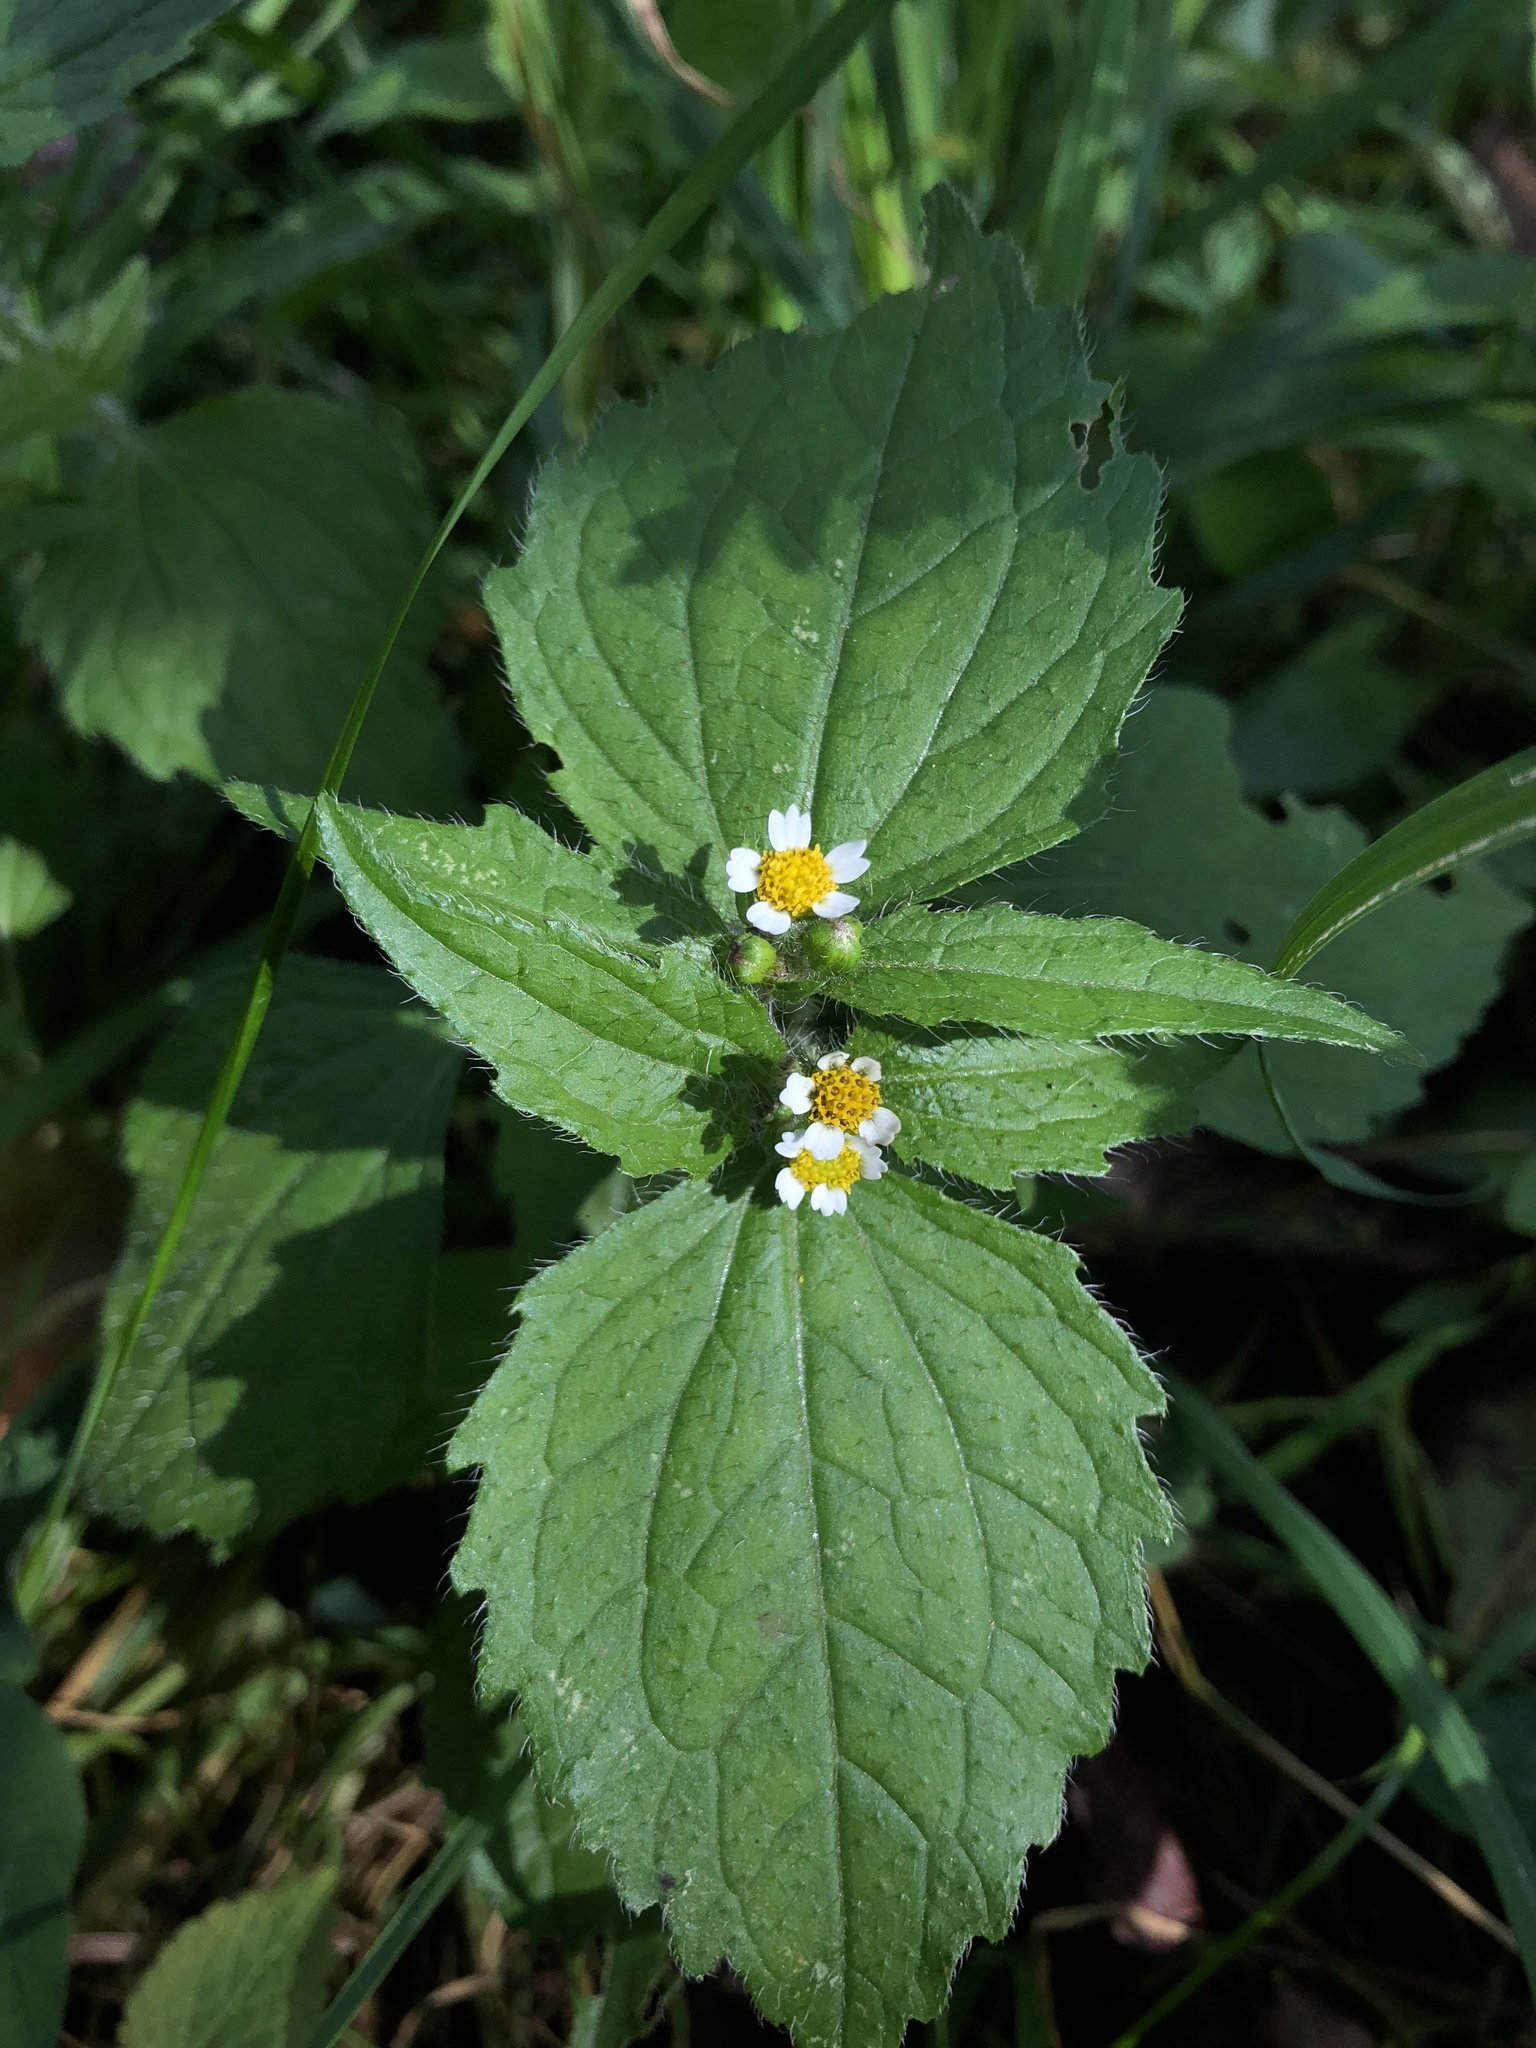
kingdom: Plantae
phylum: Tracheophyta
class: Magnoliopsida
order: Asterales
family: Asteraceae
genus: Galinsoga
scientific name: Galinsoga quadriradiata
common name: Shaggy soldier
